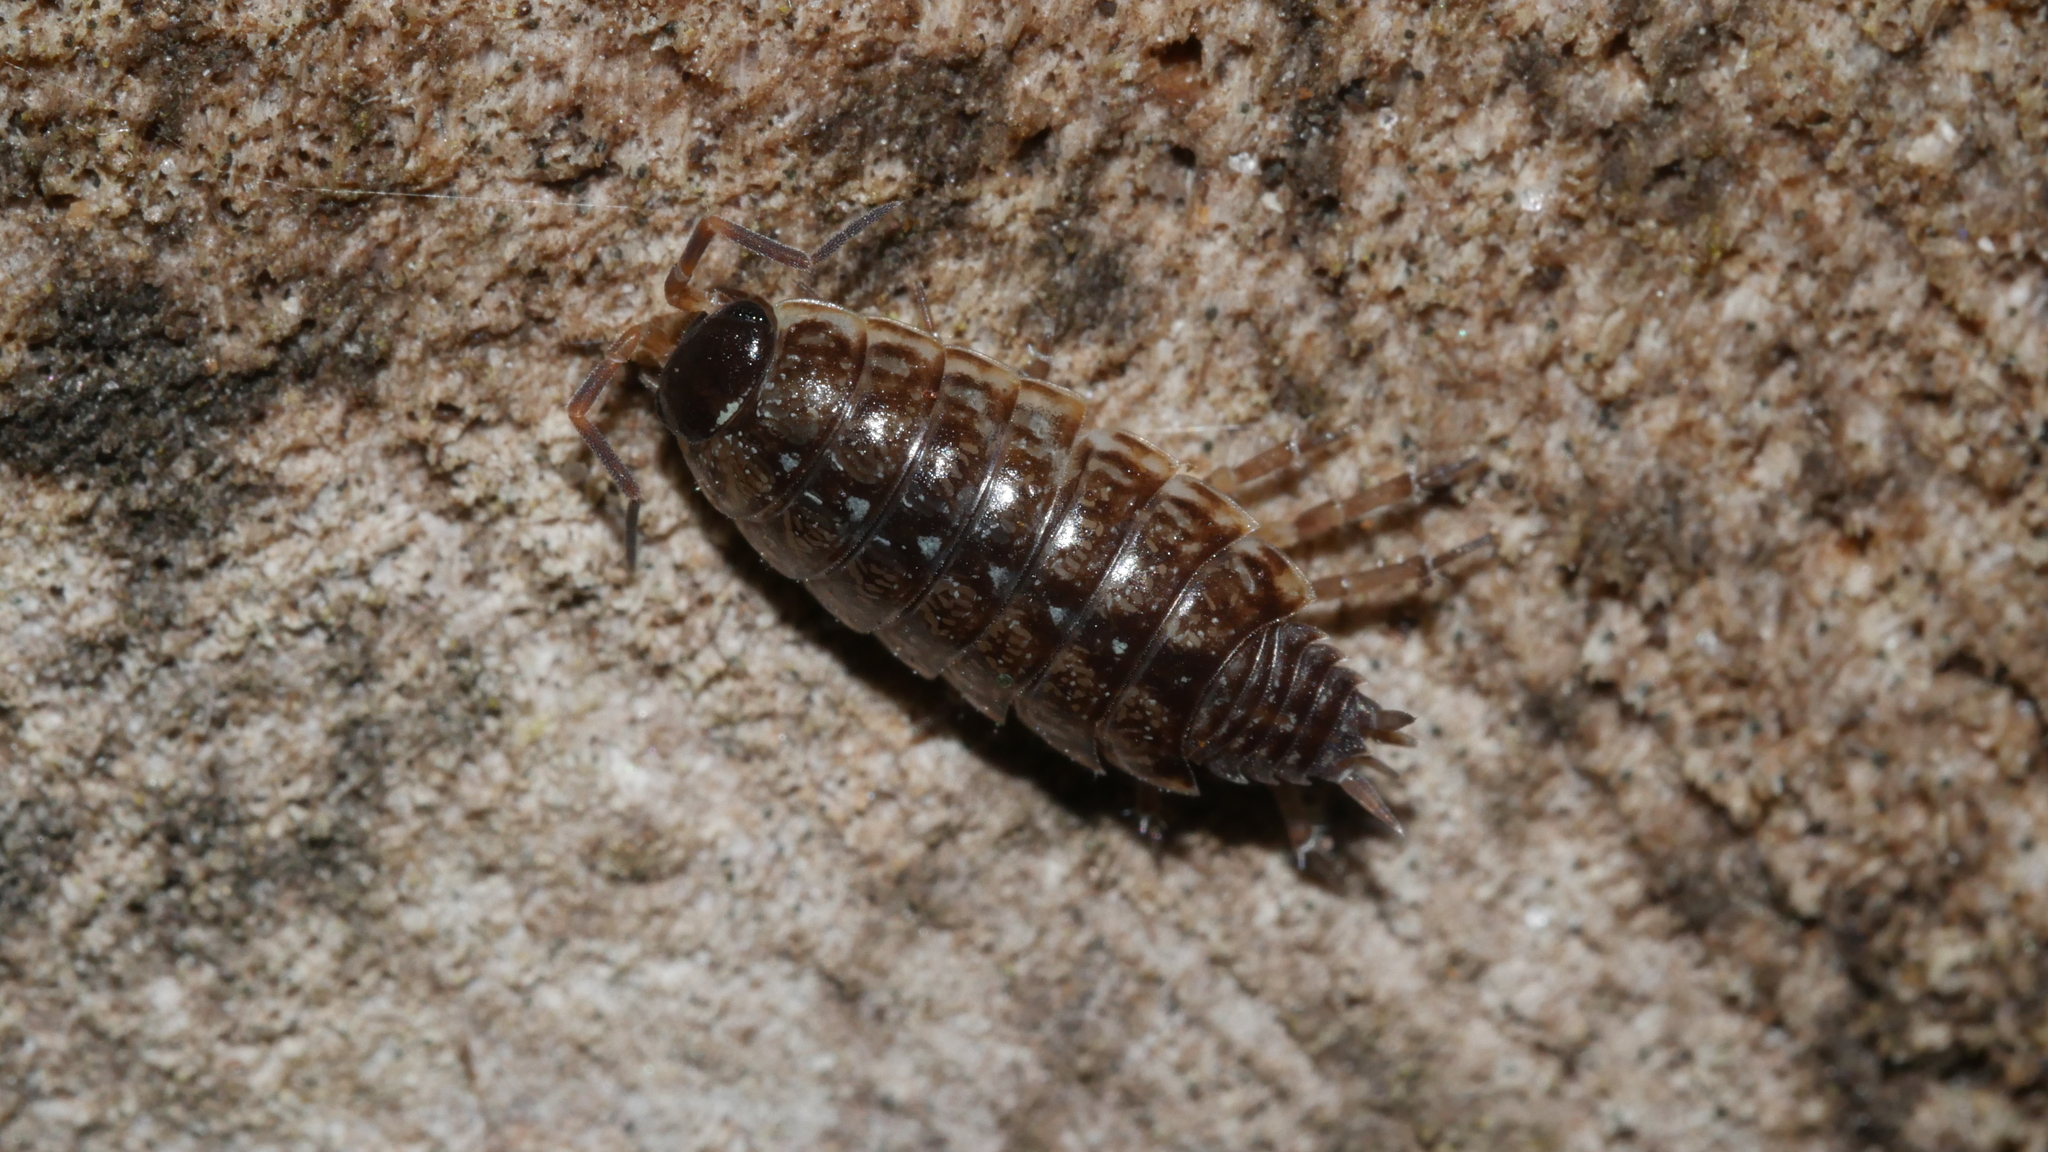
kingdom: Animalia
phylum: Arthropoda
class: Malacostraca
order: Isopoda
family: Philosciidae
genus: Philoscia
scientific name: Philoscia muscorum
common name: Common striped woodlouse
